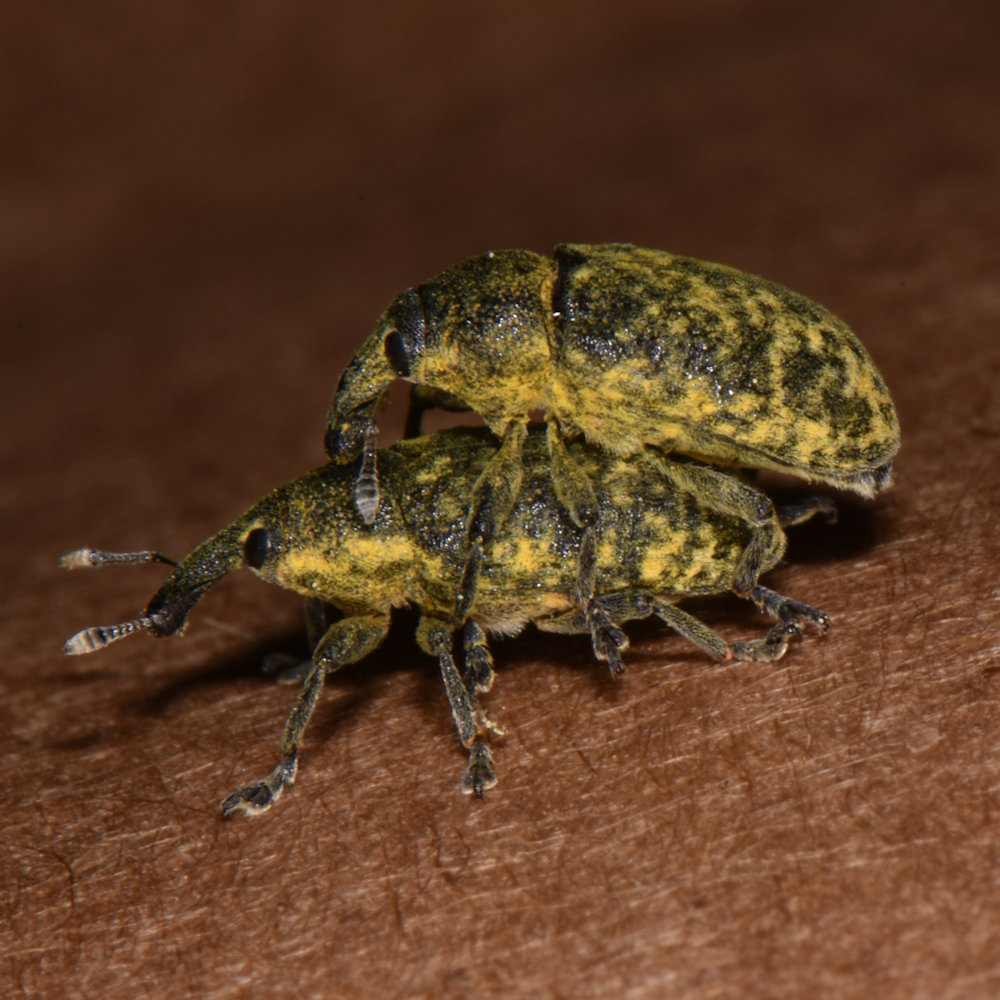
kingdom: Animalia
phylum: Arthropoda
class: Insecta
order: Coleoptera
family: Curculionidae
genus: Larinus
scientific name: Larinus carlinae
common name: Weevil
